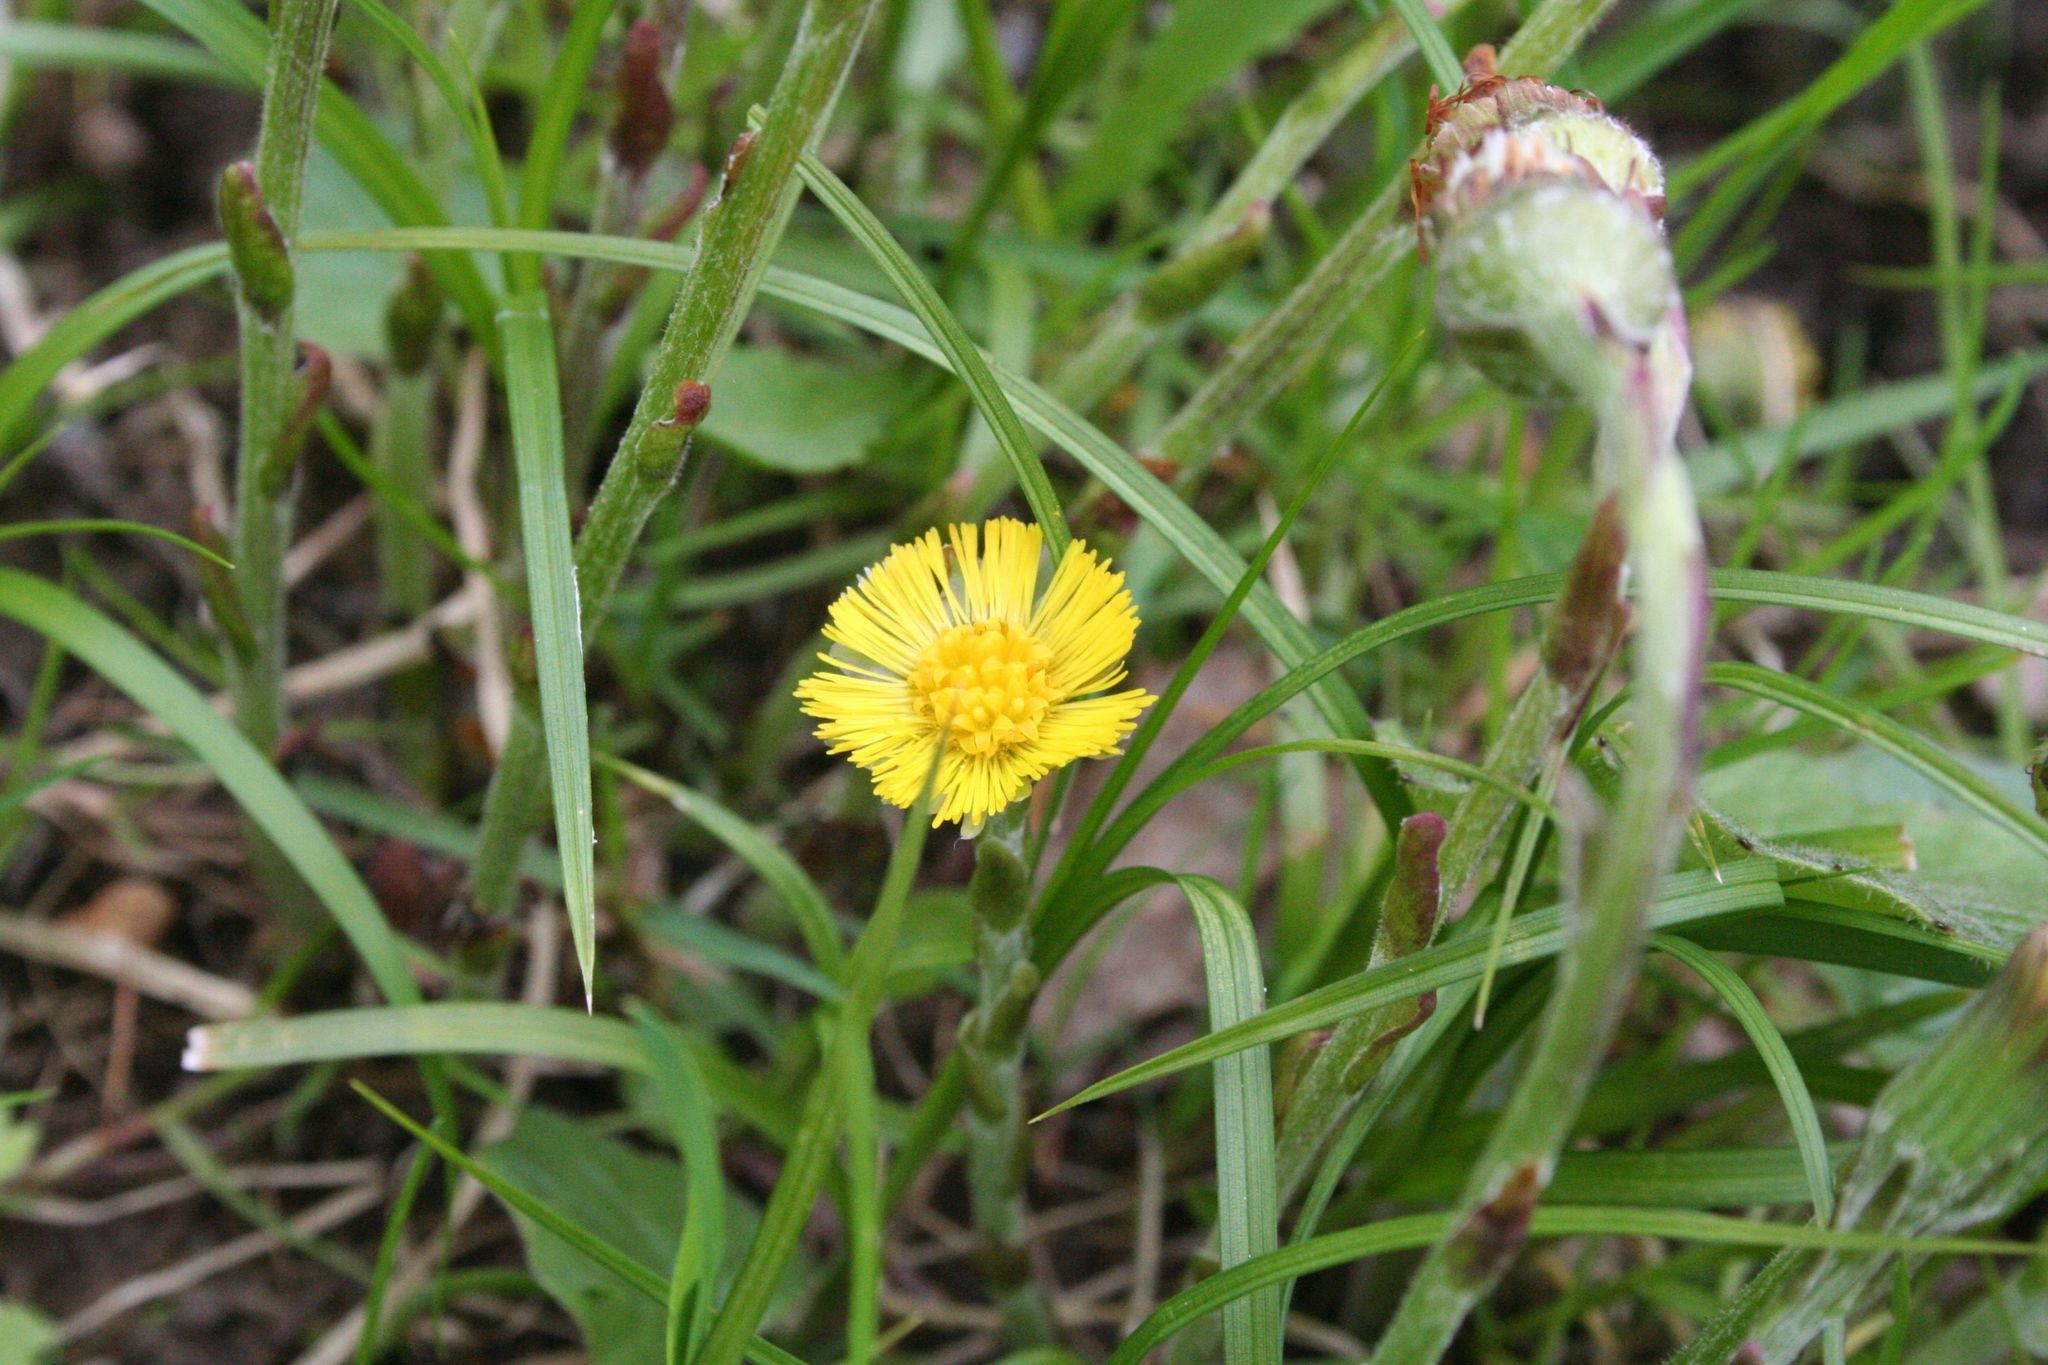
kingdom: Plantae
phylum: Tracheophyta
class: Magnoliopsida
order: Asterales
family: Asteraceae
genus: Tussilago
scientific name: Tussilago farfara
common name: Coltsfoot
